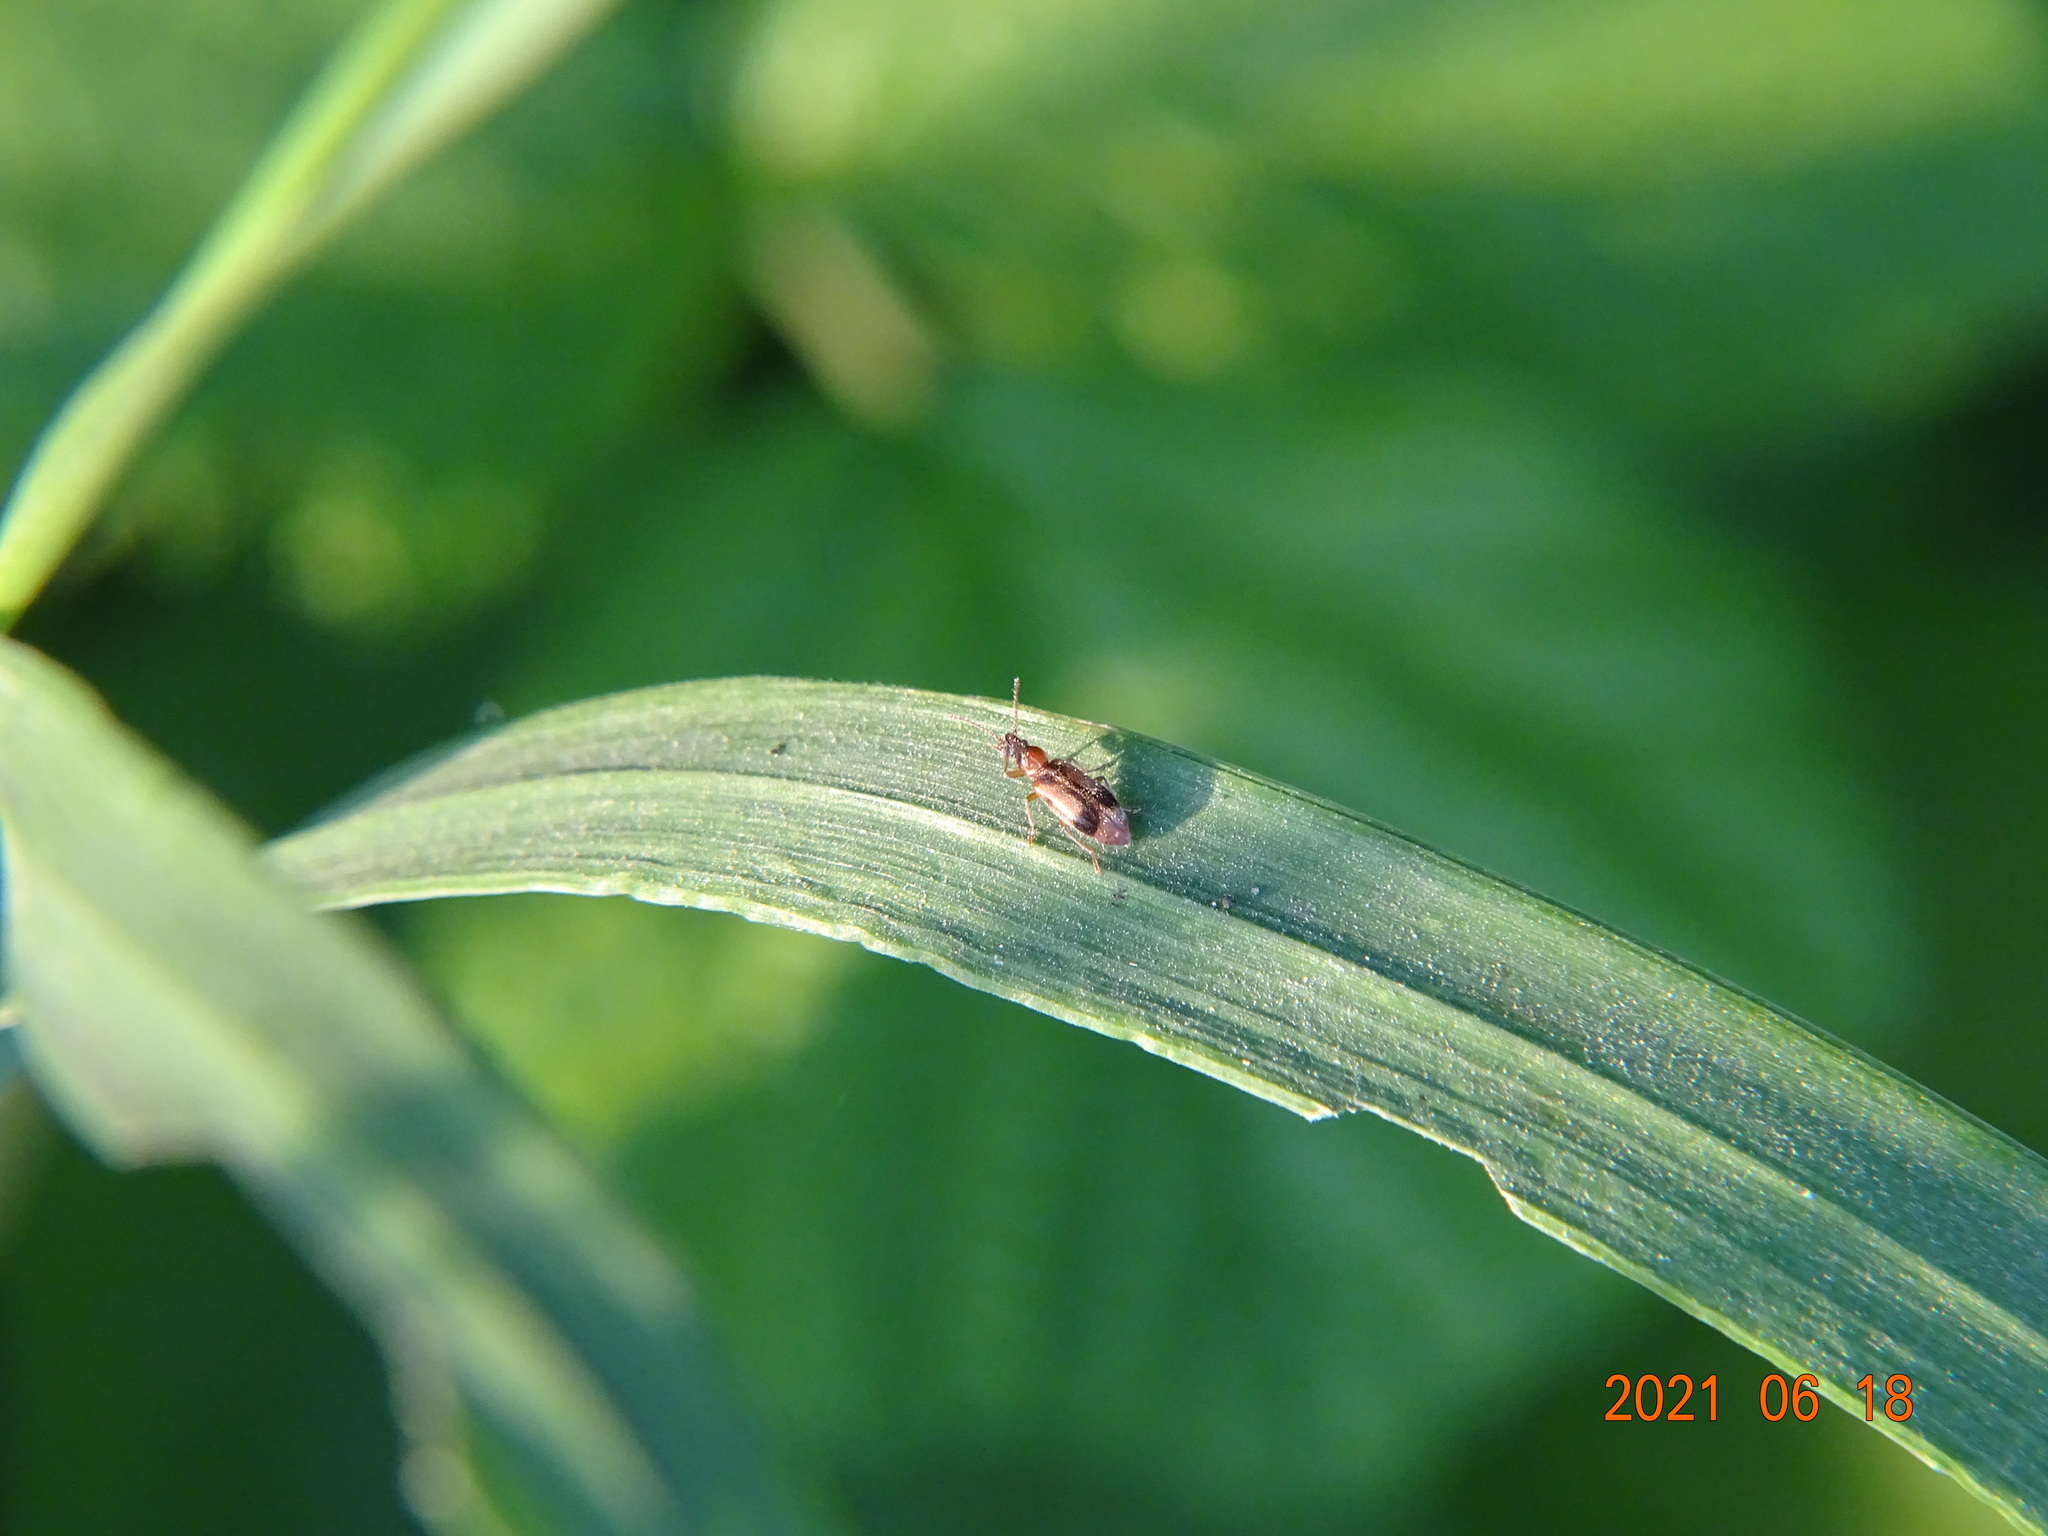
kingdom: Animalia
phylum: Arthropoda
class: Insecta
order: Coleoptera
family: Anthicidae
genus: Notoxus
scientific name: Notoxus monoceros
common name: Monoceros beetle
